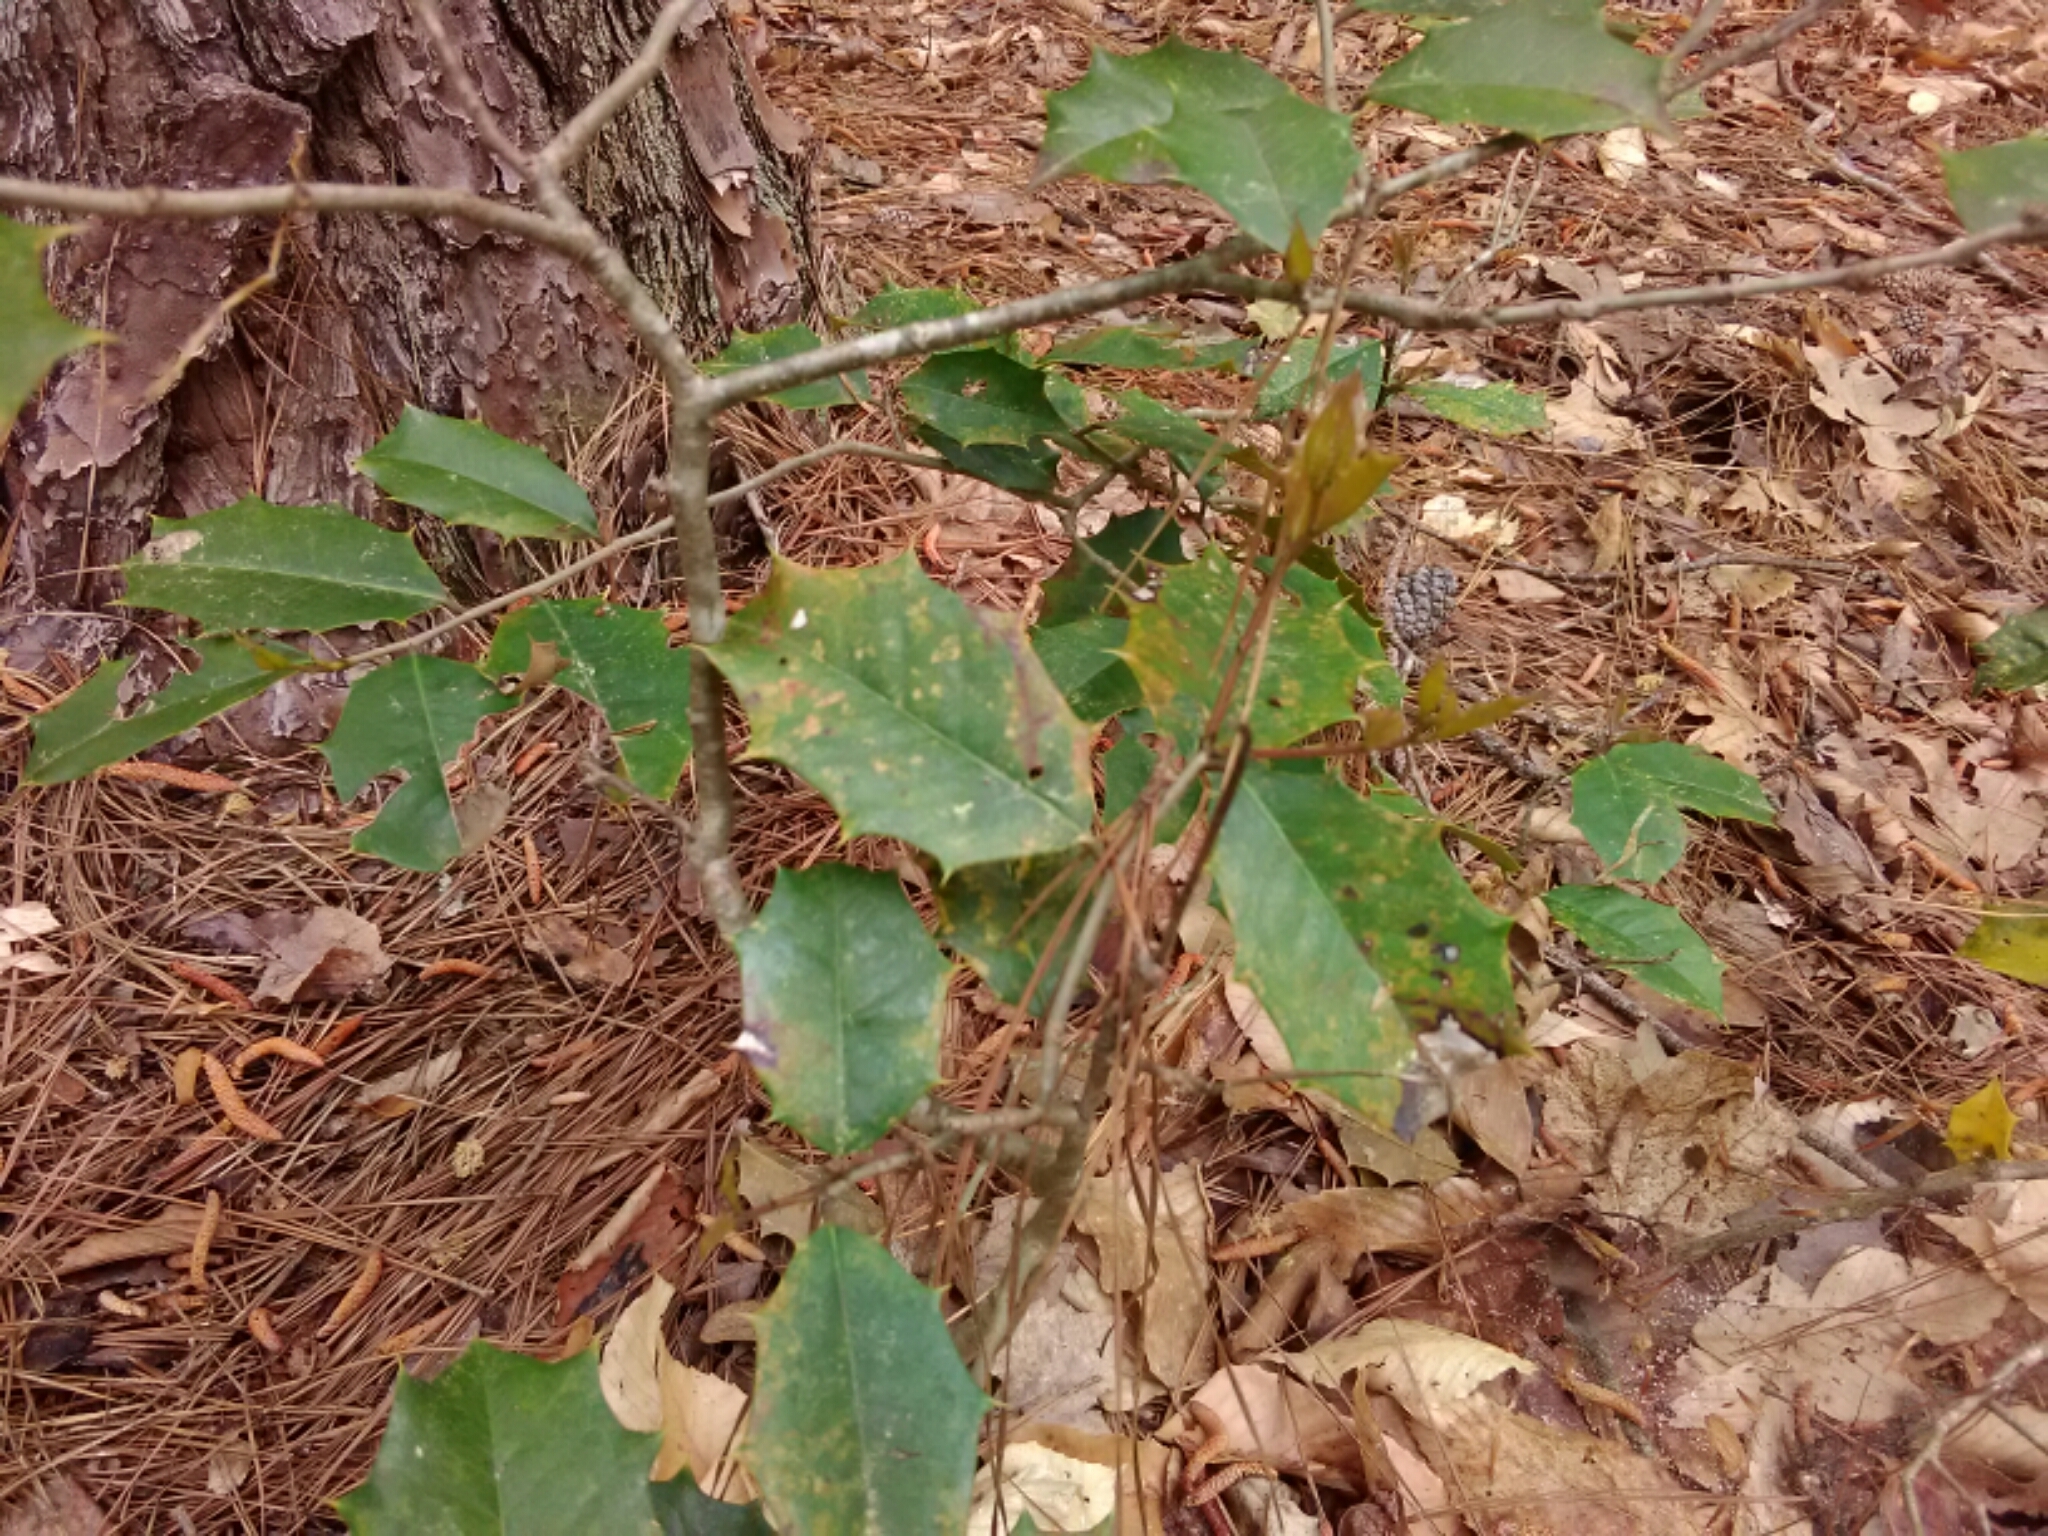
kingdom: Plantae
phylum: Tracheophyta
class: Magnoliopsida
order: Aquifoliales
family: Aquifoliaceae
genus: Ilex
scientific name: Ilex opaca
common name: American holly
